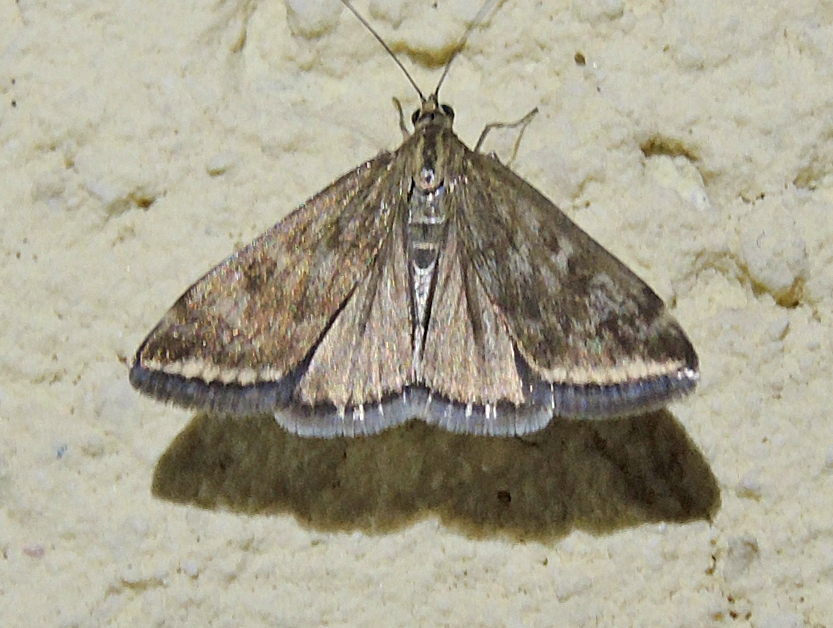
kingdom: Animalia
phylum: Arthropoda
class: Insecta
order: Lepidoptera
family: Crambidae
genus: Loxostege
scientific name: Loxostege sticticalis
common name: Crambid moth
